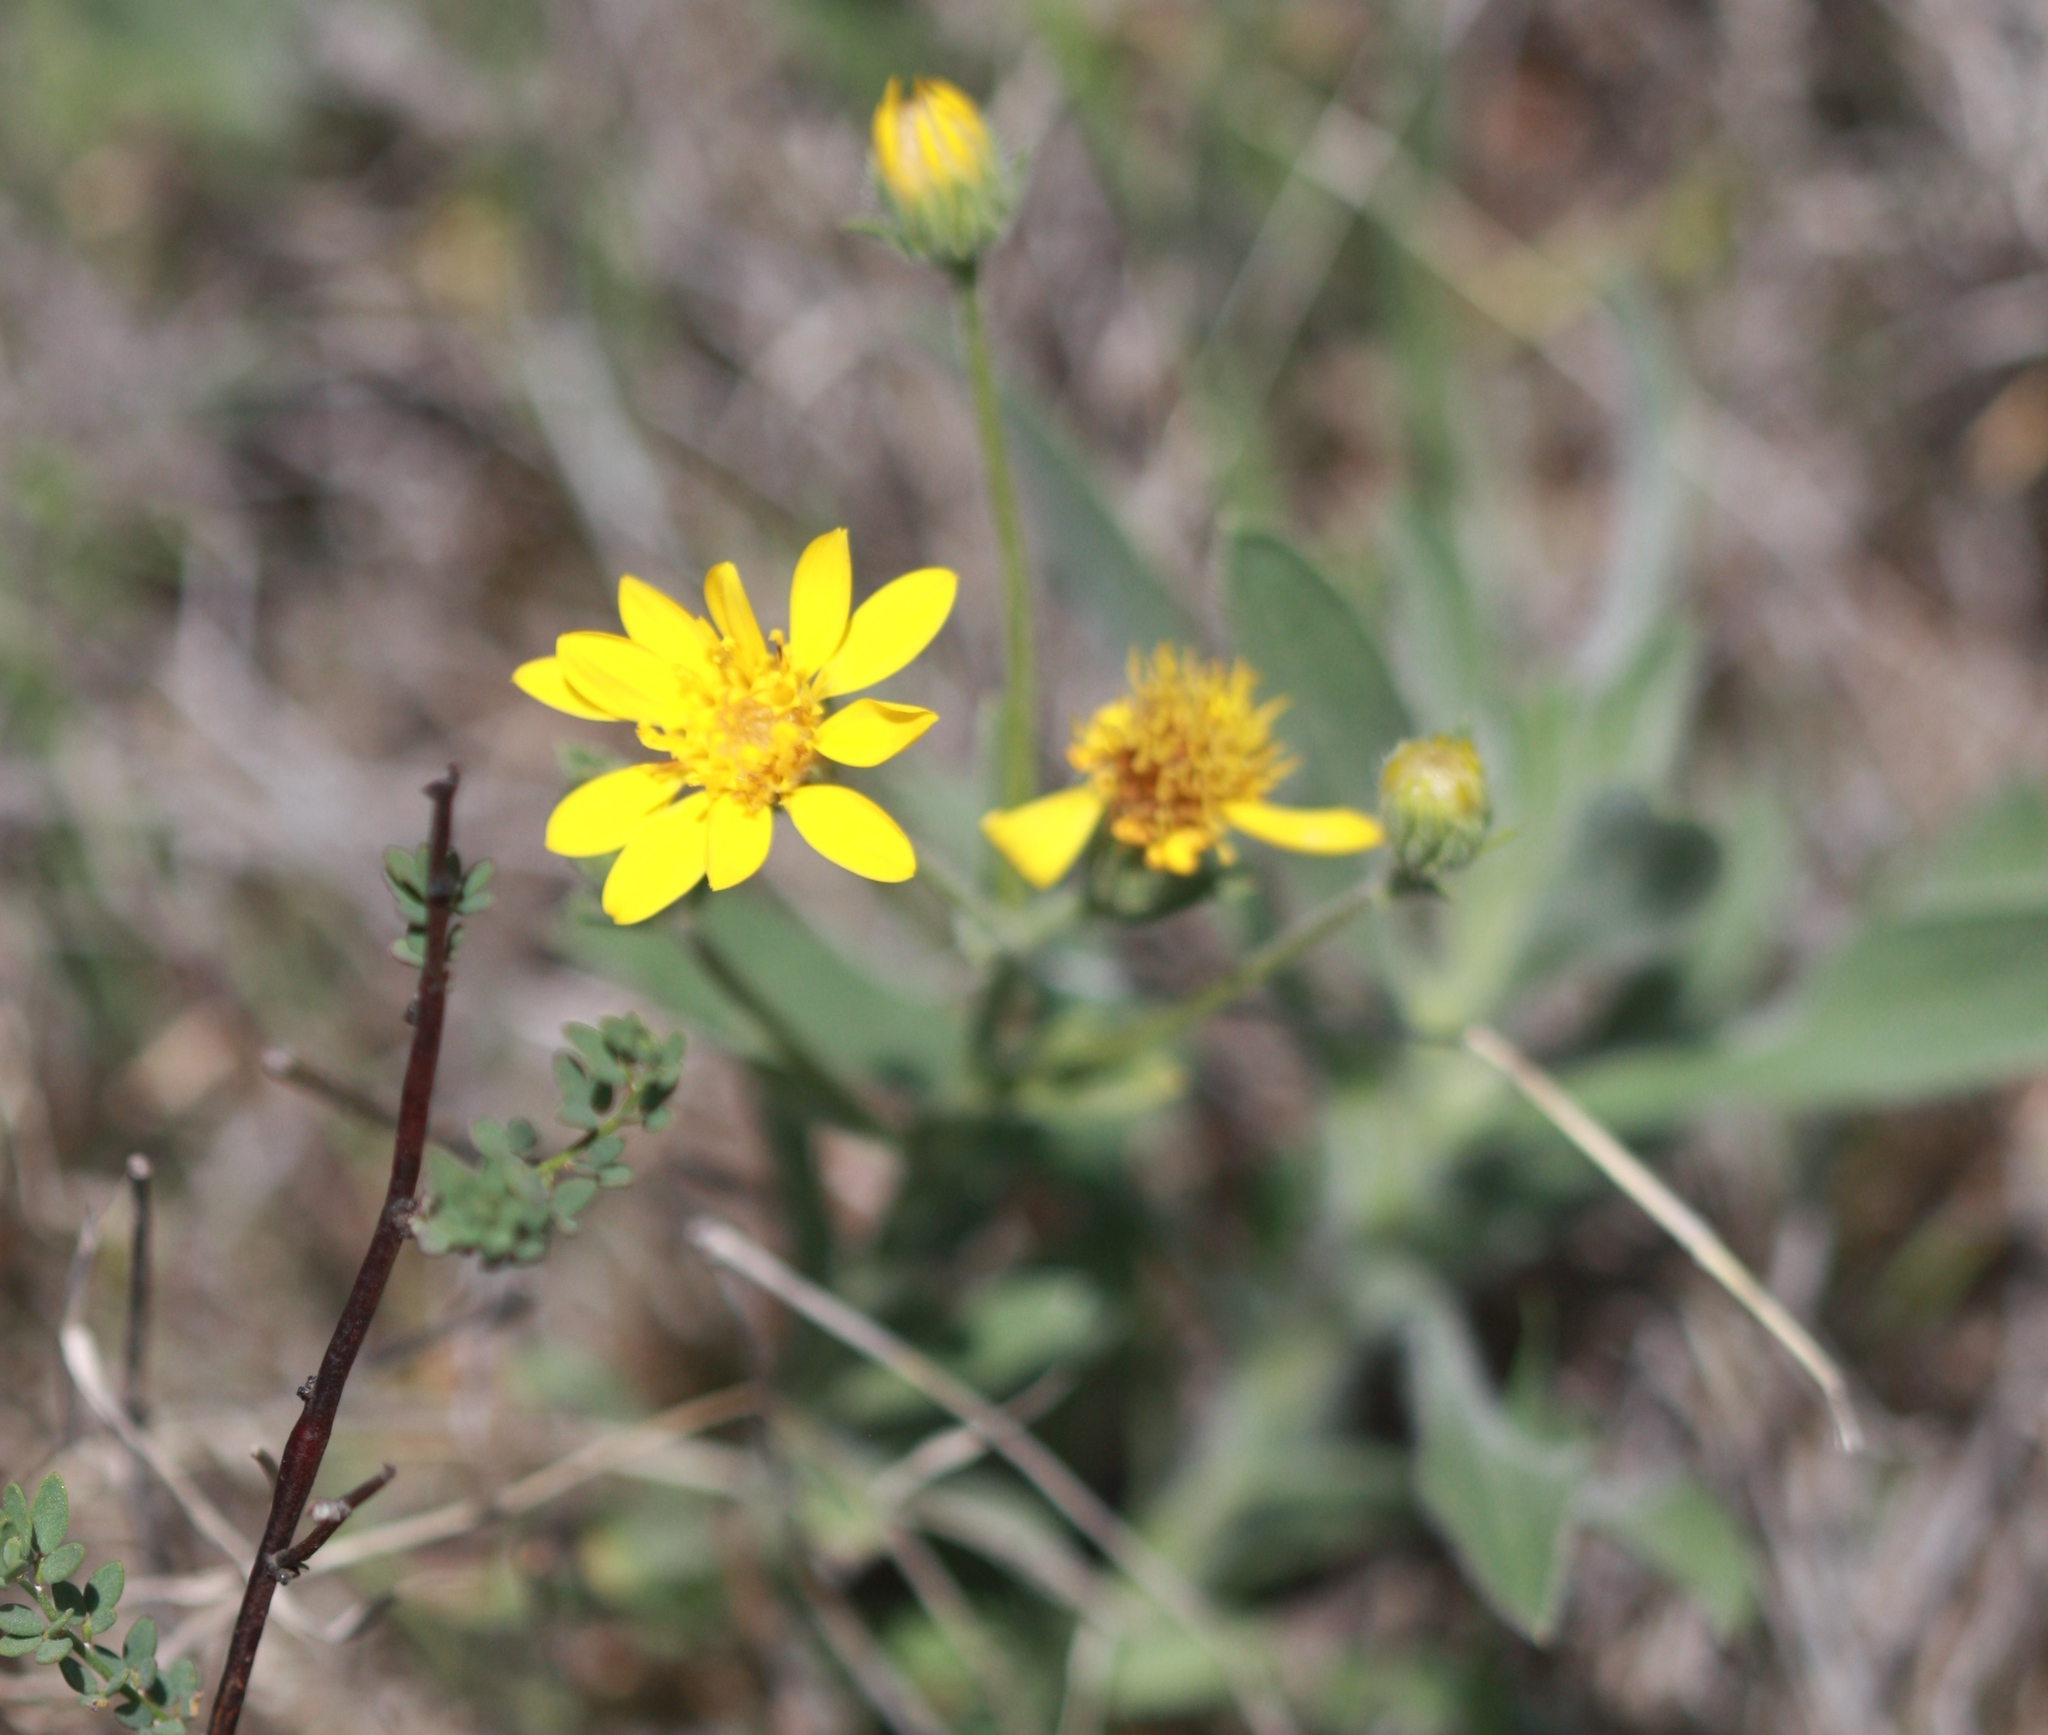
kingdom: Plantae
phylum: Tracheophyta
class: Magnoliopsida
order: Asterales
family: Asteraceae
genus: Heterotheca
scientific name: Heterotheca sessiliflora
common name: Sessile-flower golden-aster
